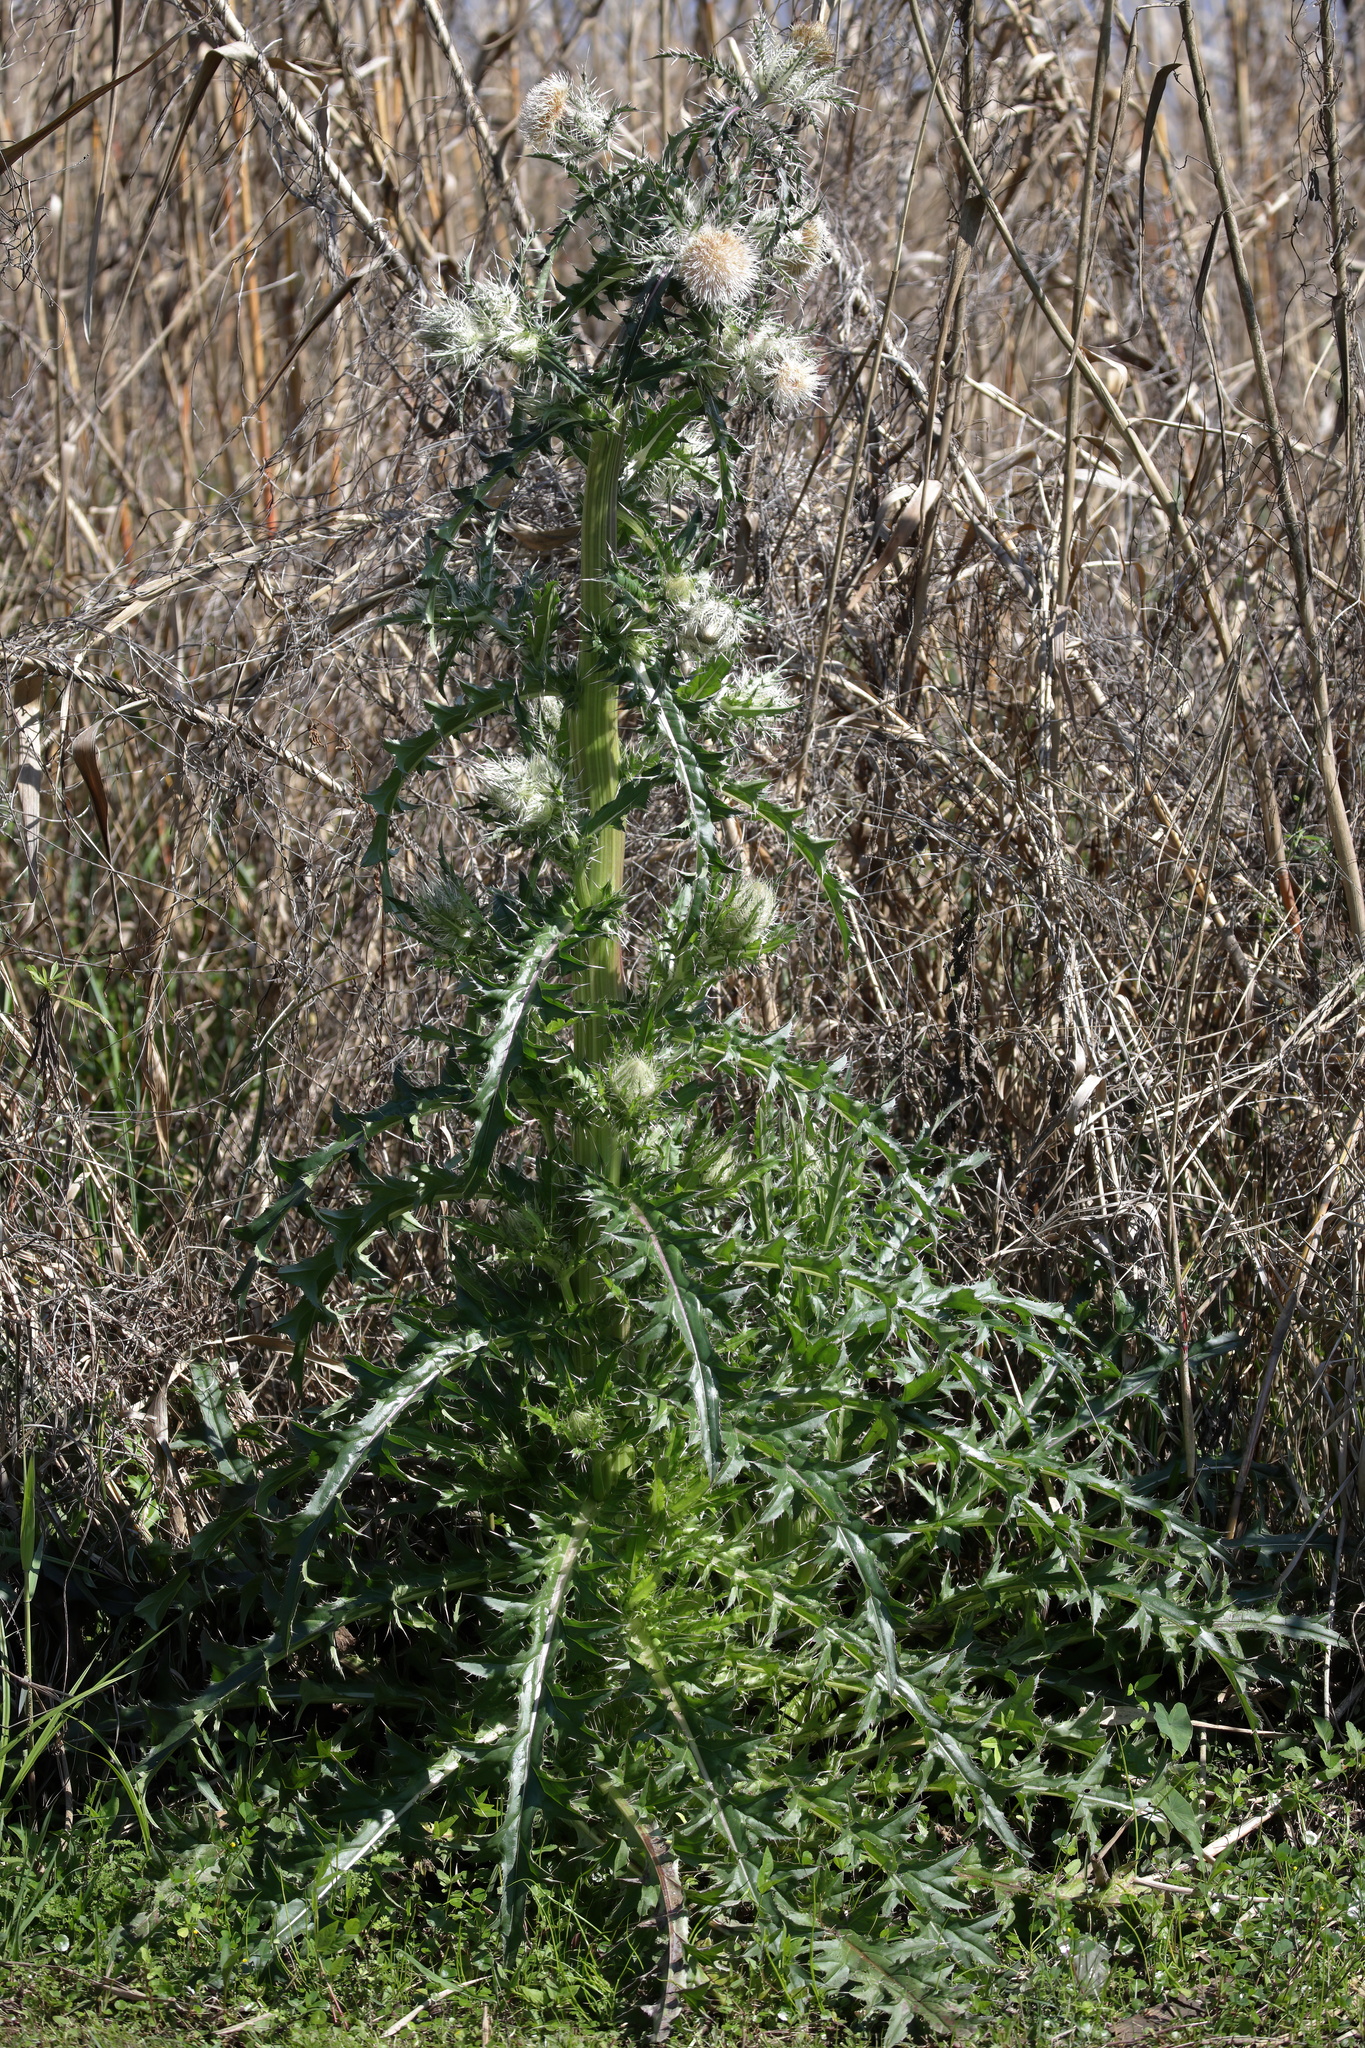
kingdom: Plantae
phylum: Tracheophyta
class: Magnoliopsida
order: Asterales
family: Asteraceae
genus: Cirsium
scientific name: Cirsium horridulum
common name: Bristly thistle
